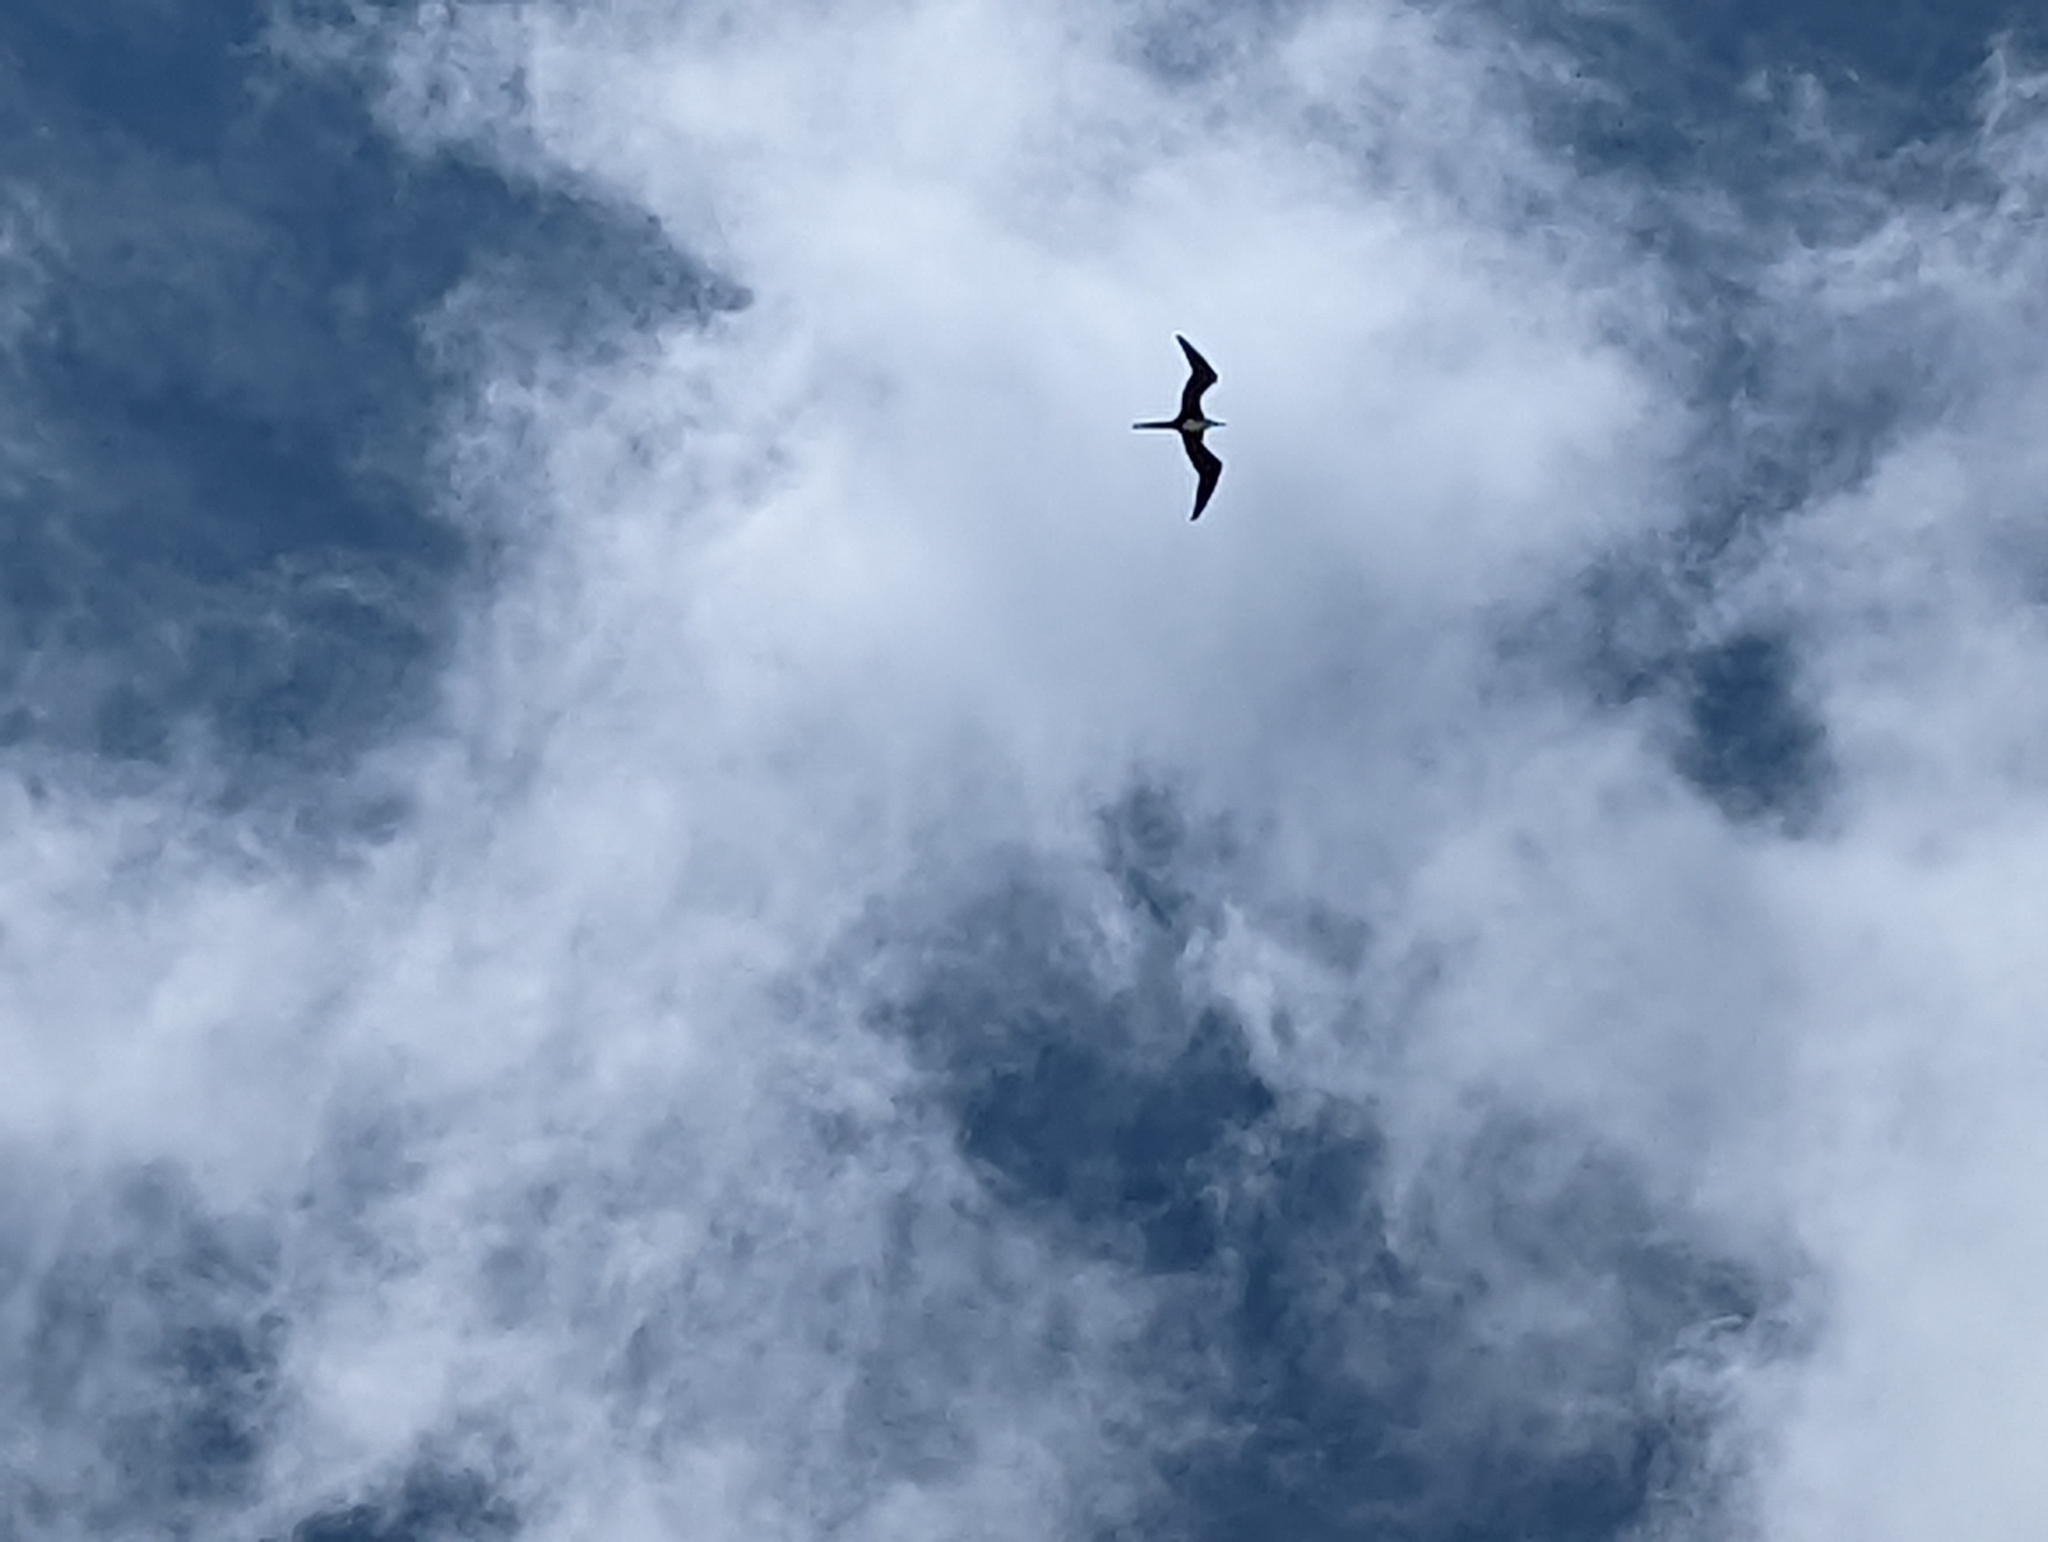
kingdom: Animalia
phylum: Chordata
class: Aves
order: Suliformes
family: Fregatidae
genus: Fregata
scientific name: Fregata magnificens
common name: Magnificent frigatebird
